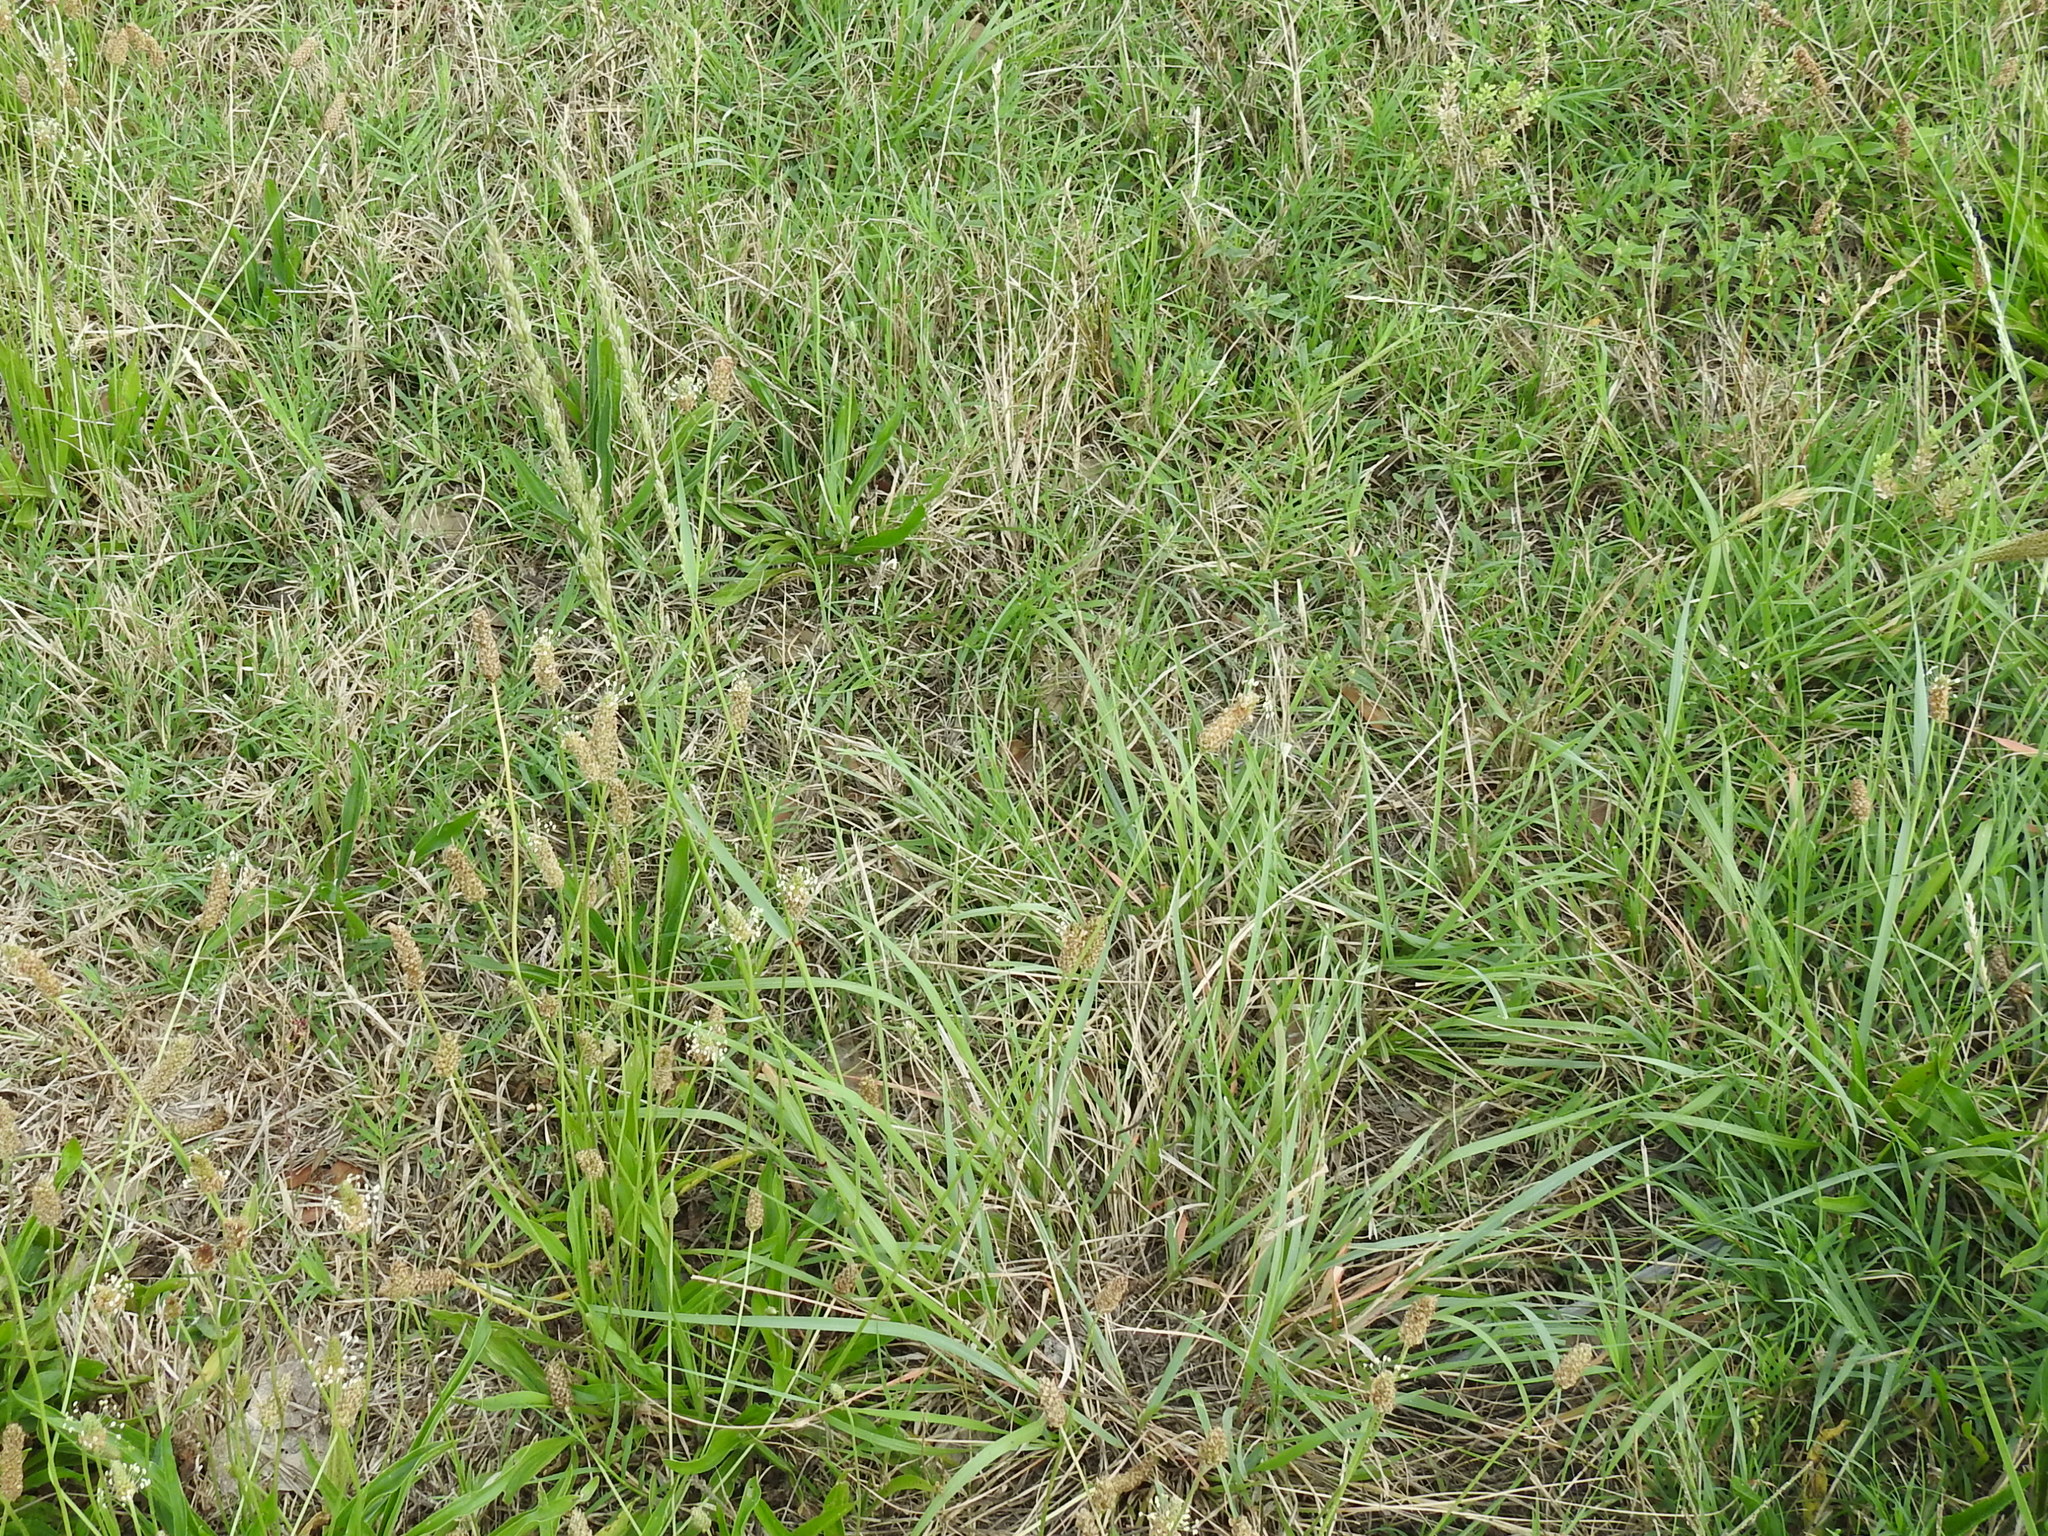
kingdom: Plantae
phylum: Tracheophyta
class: Liliopsida
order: Poales
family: Poaceae
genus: Tridens
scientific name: Tridens albescens
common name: White tridens
